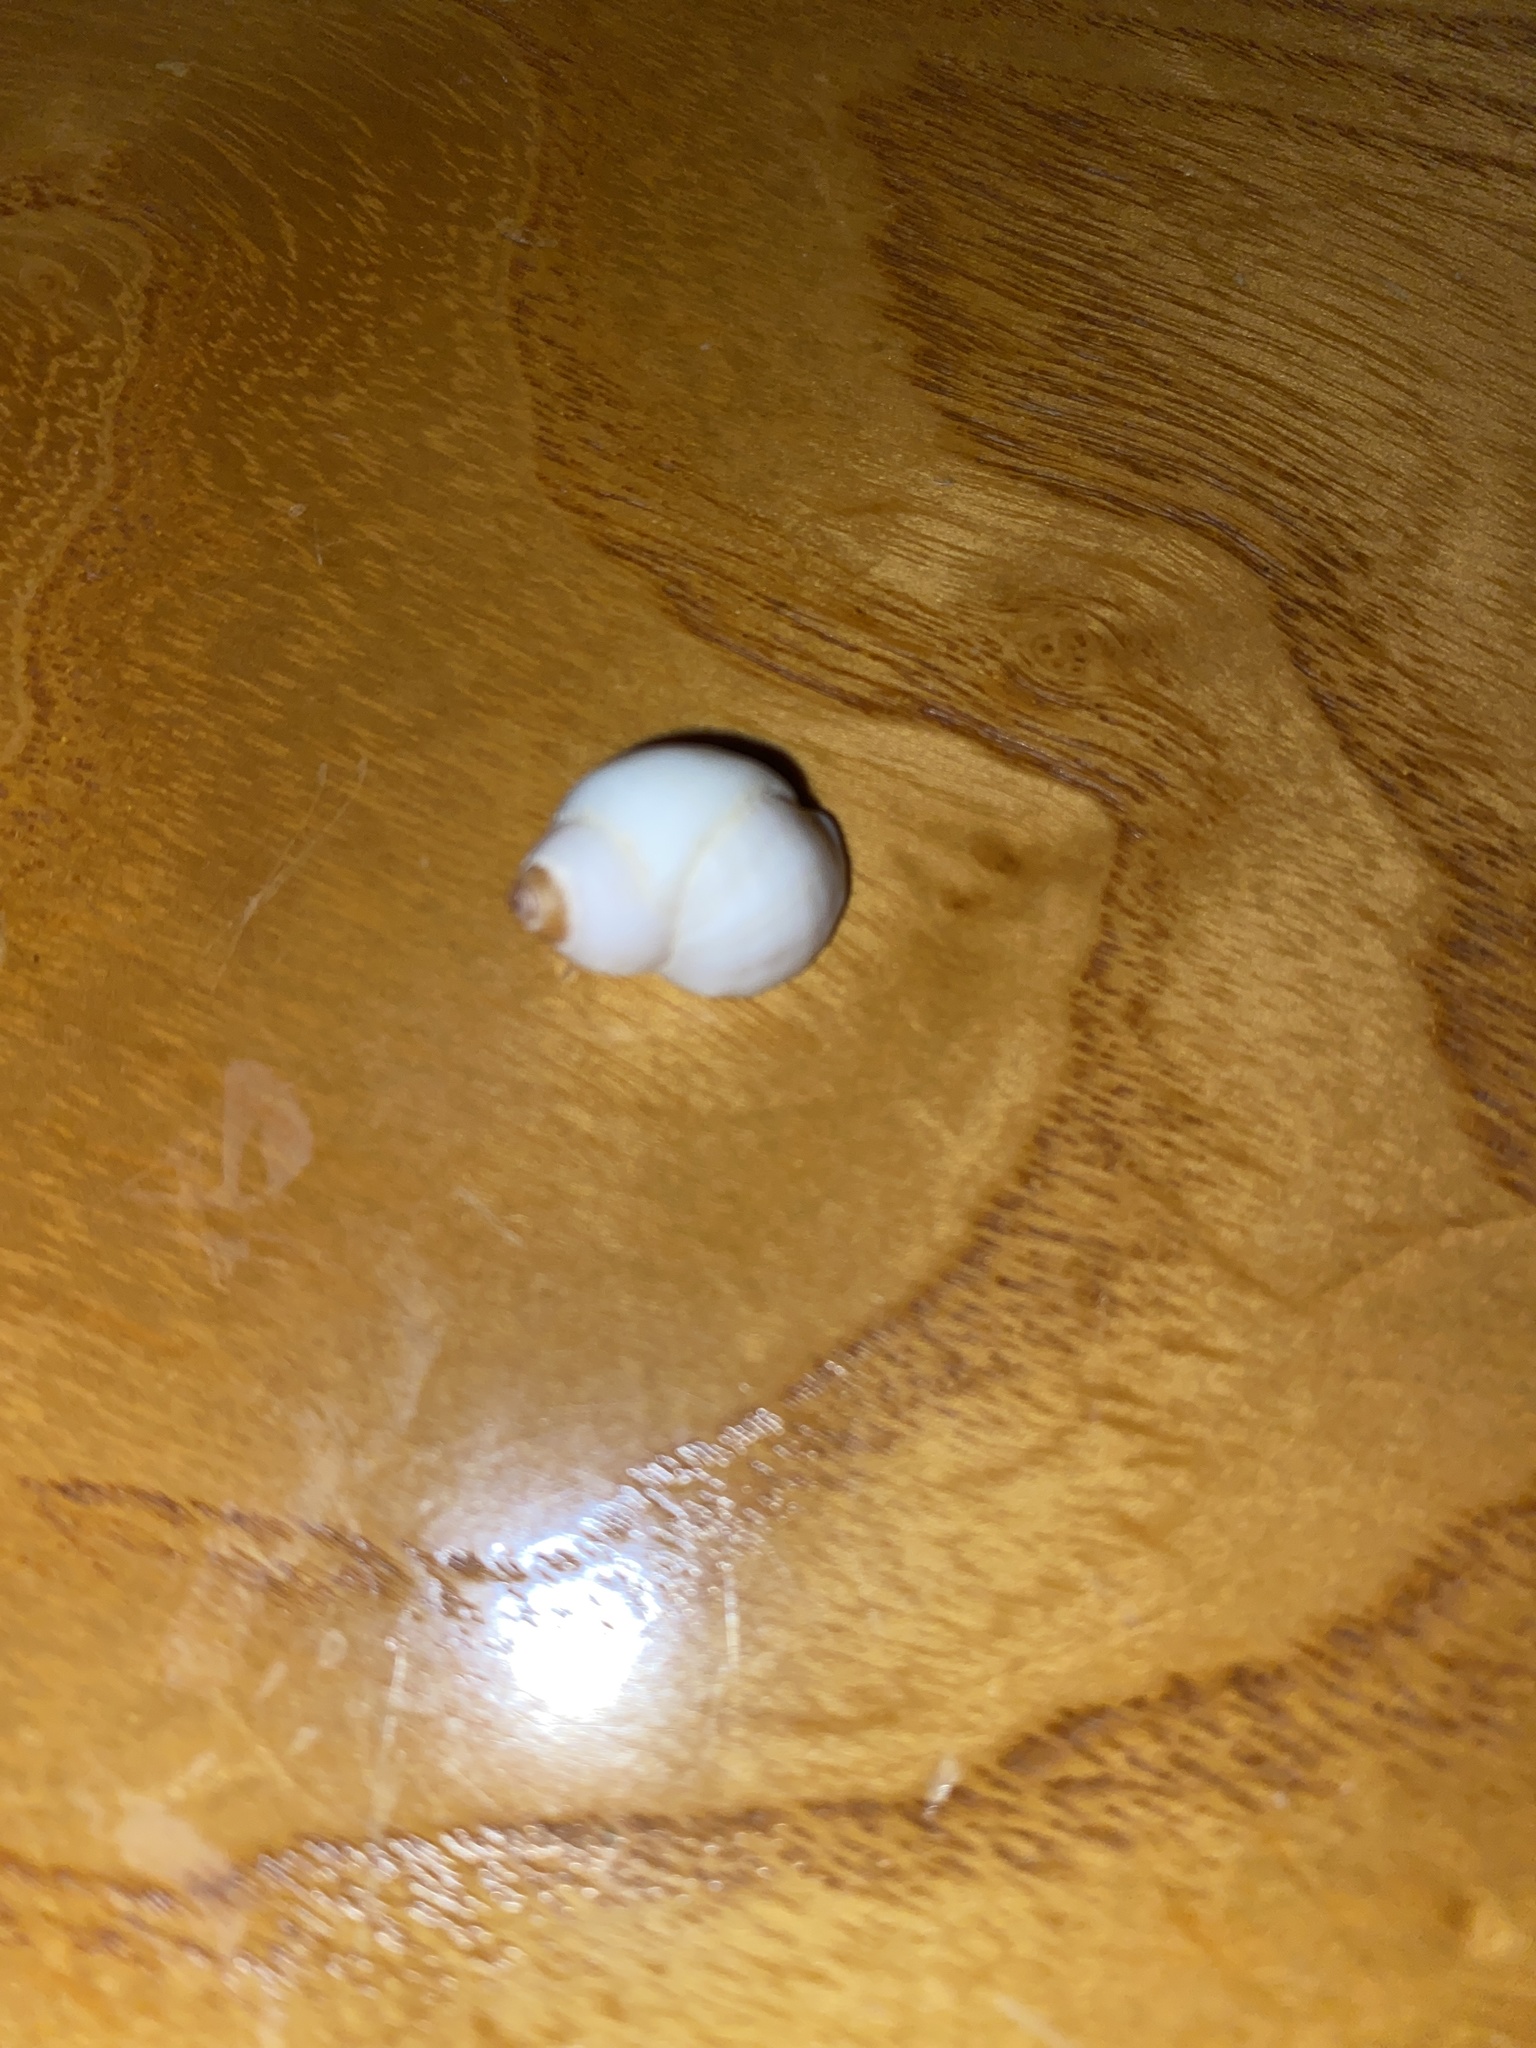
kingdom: Animalia
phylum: Mollusca
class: Gastropoda
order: Neogastropoda
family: Muricidae
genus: Nucella
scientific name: Nucella lapillus
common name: Dog whelk
